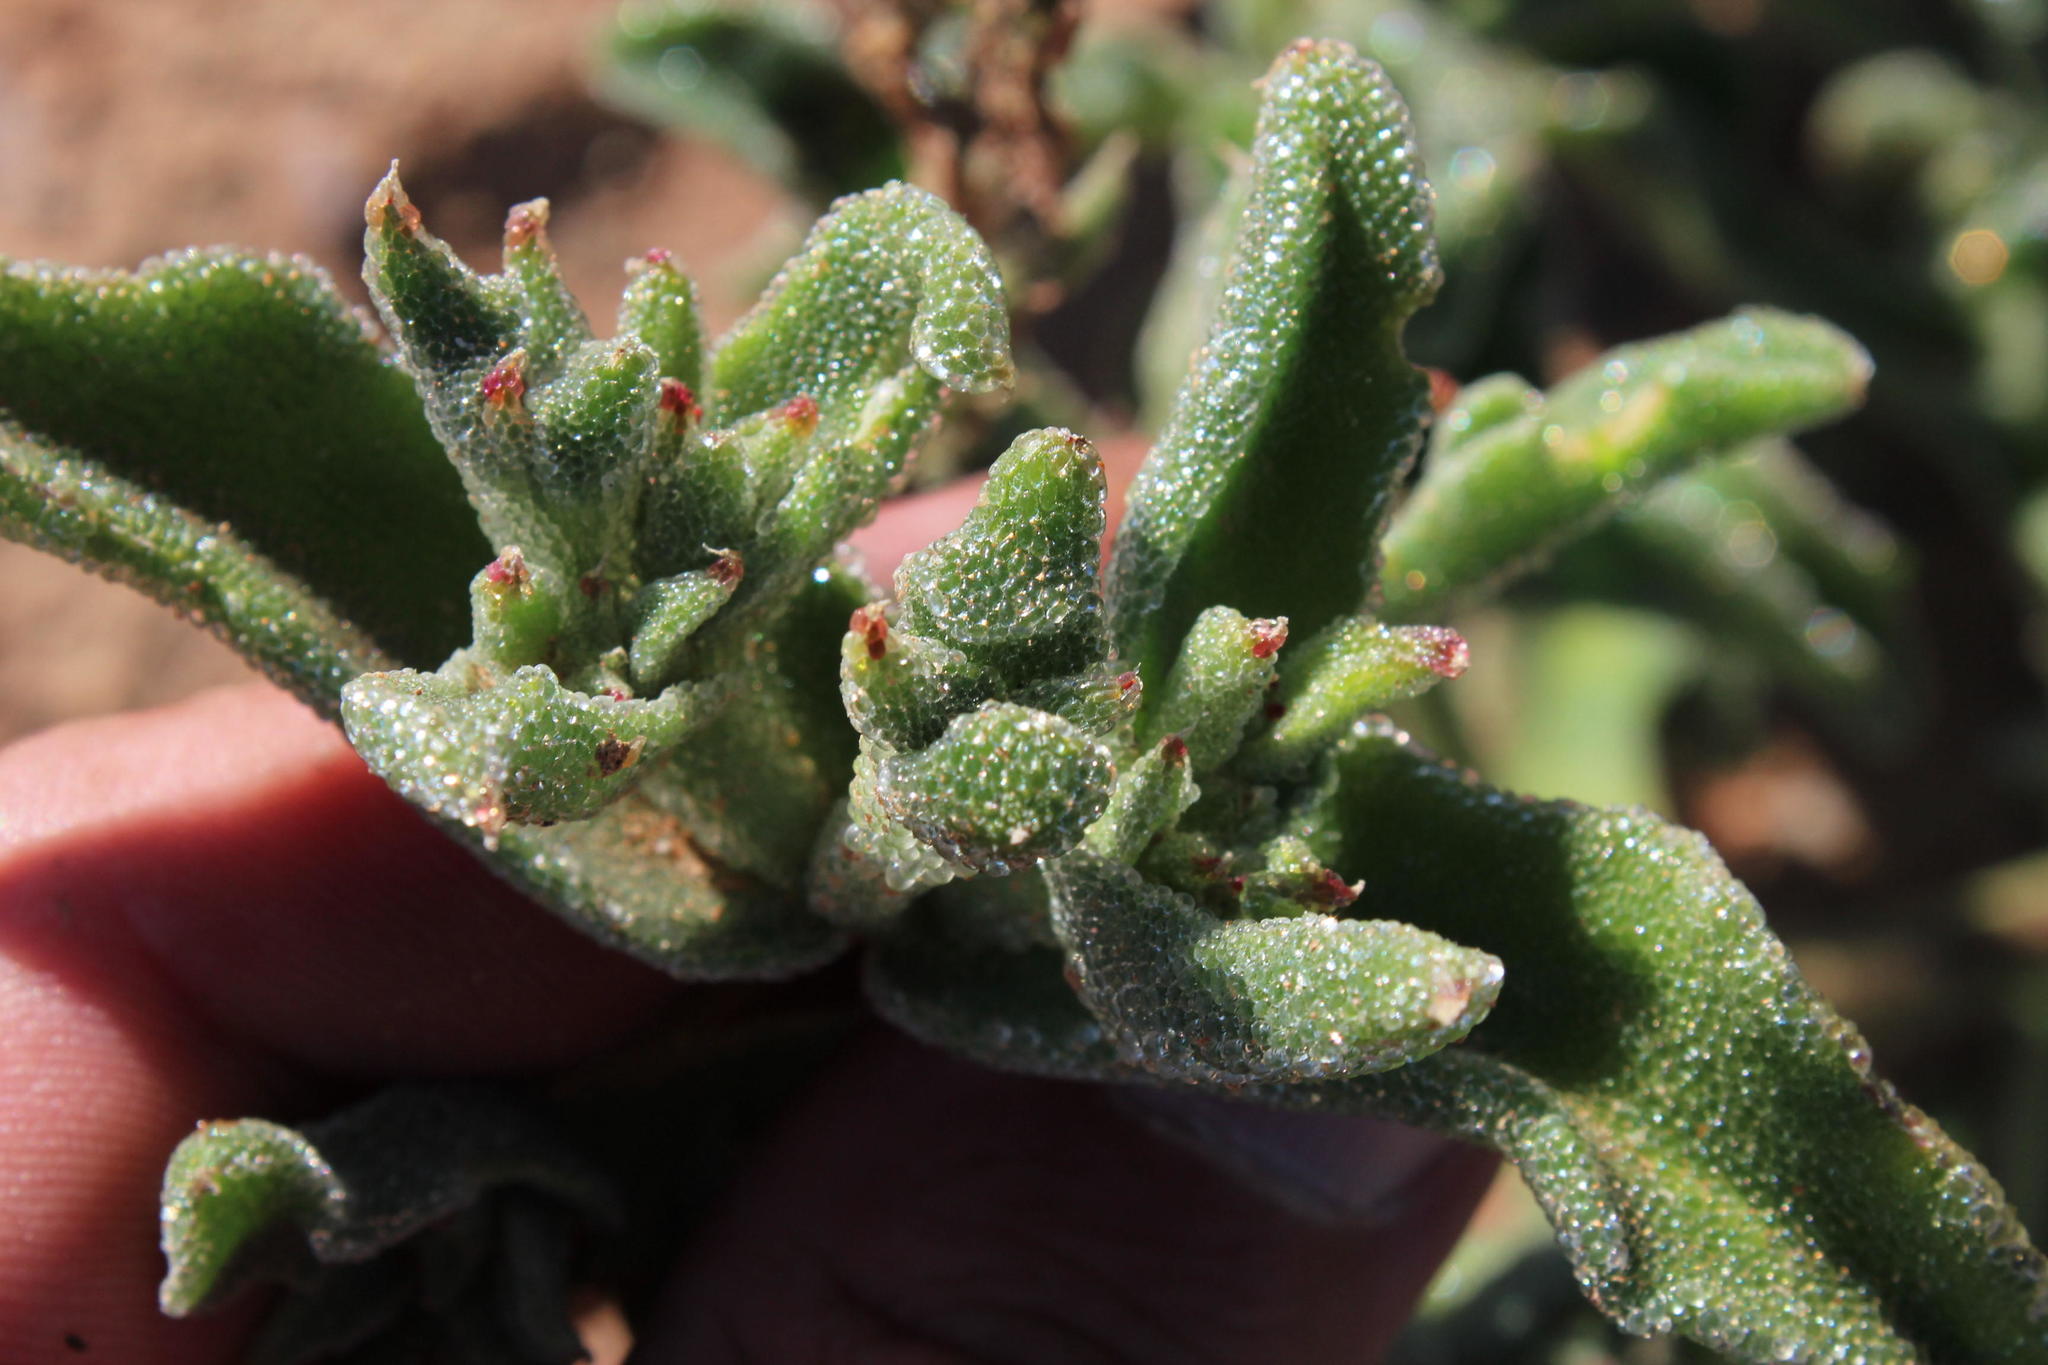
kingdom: Plantae
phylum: Tracheophyta
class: Magnoliopsida
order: Caryophyllales
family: Aizoaceae
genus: Mesembryanthemum
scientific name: Mesembryanthemum crystallinum
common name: Common iceplant
